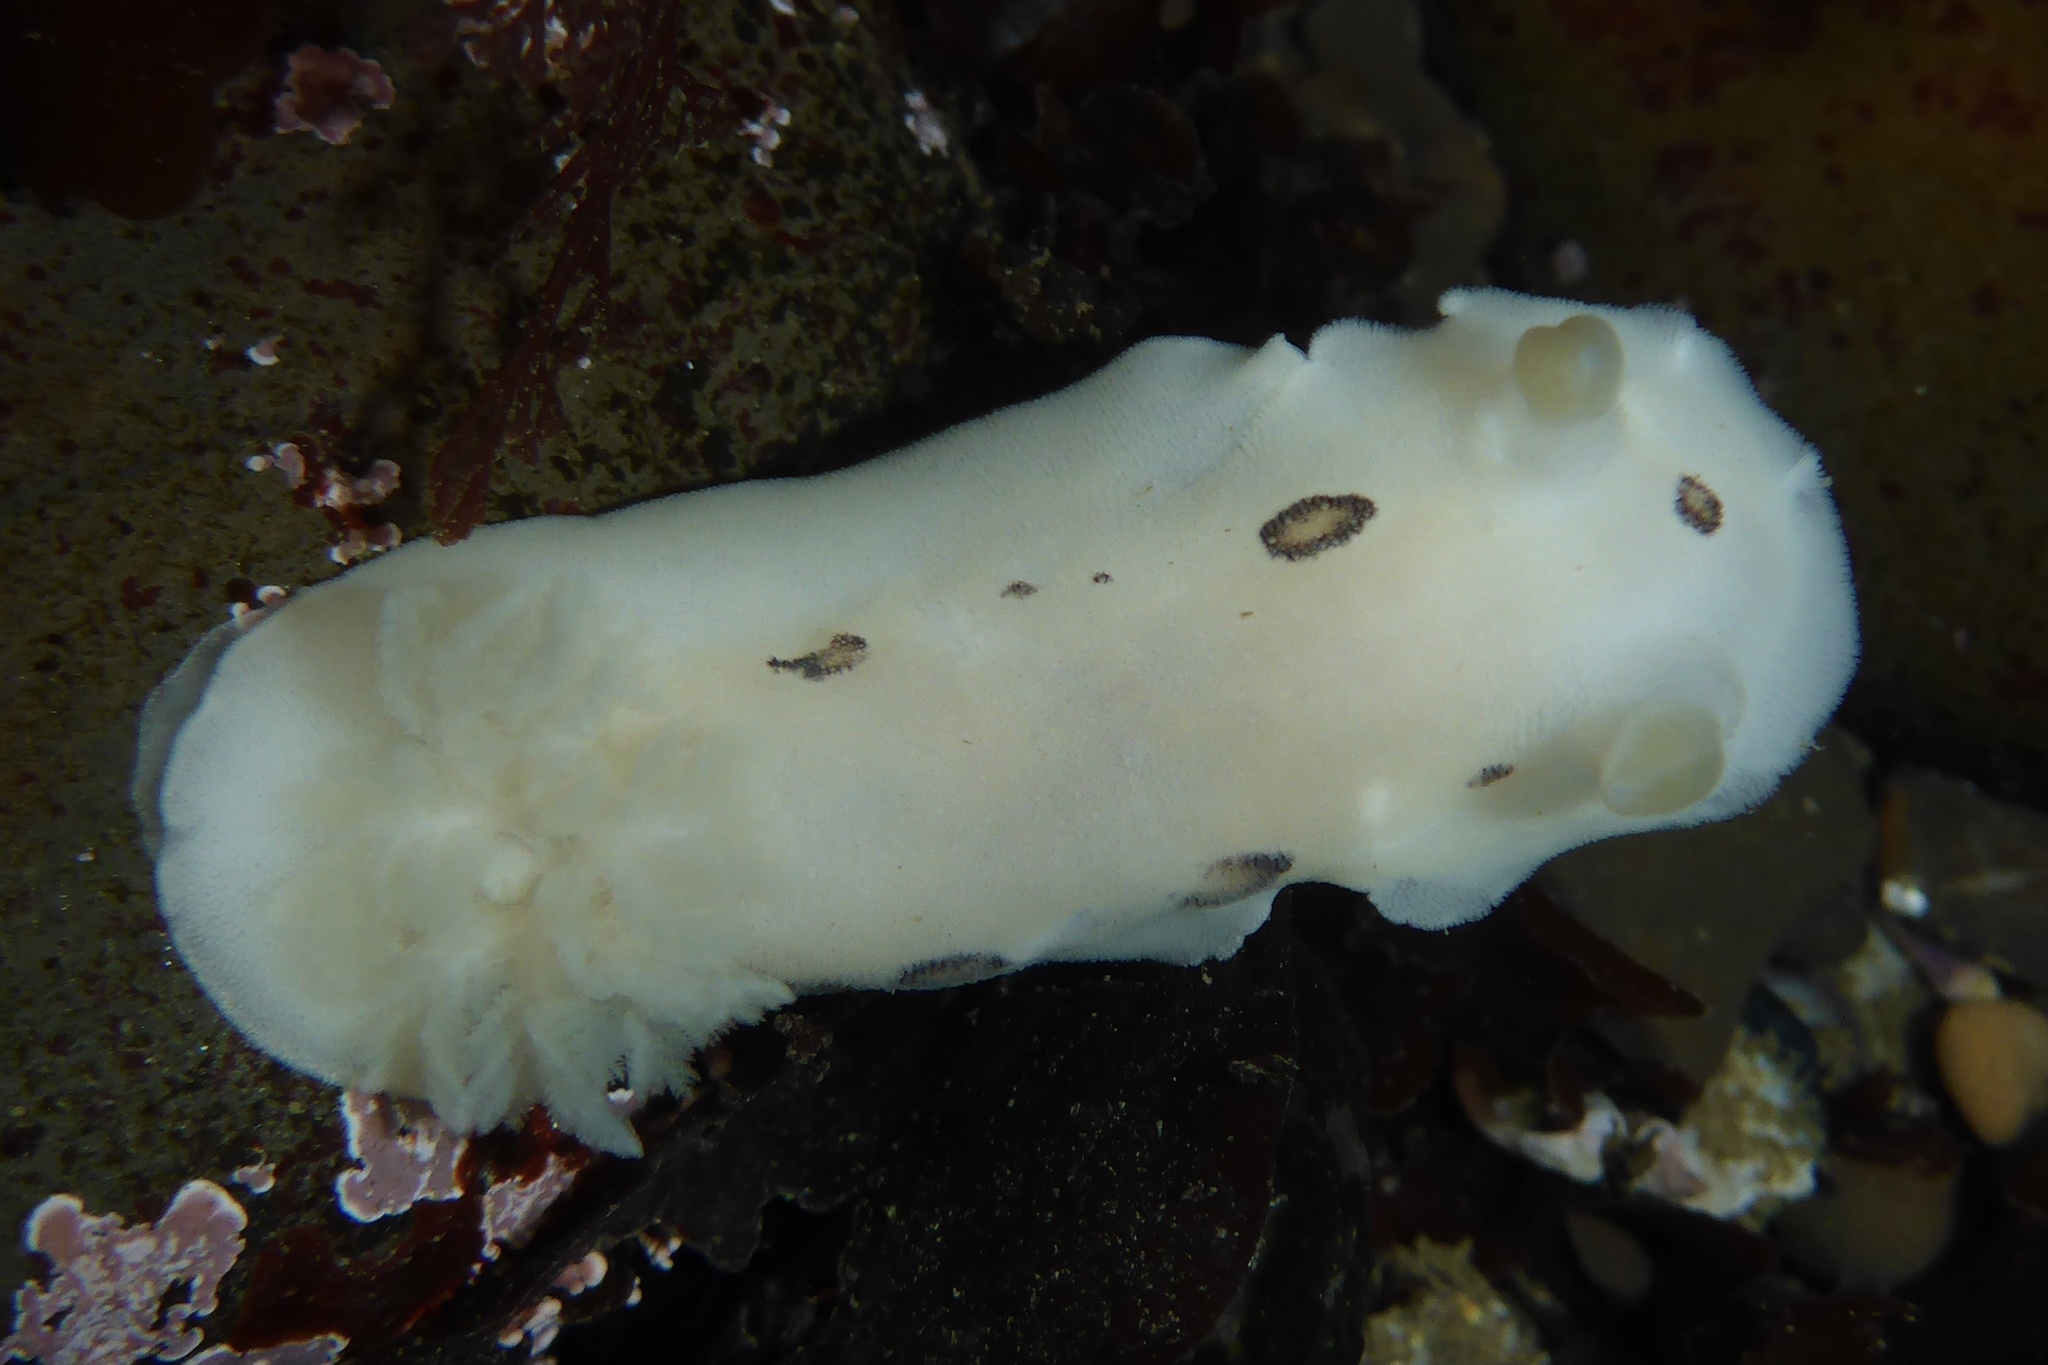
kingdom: Animalia
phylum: Mollusca
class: Gastropoda
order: Nudibranchia
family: Discodorididae
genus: Diaulula
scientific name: Diaulula sandiegensis
